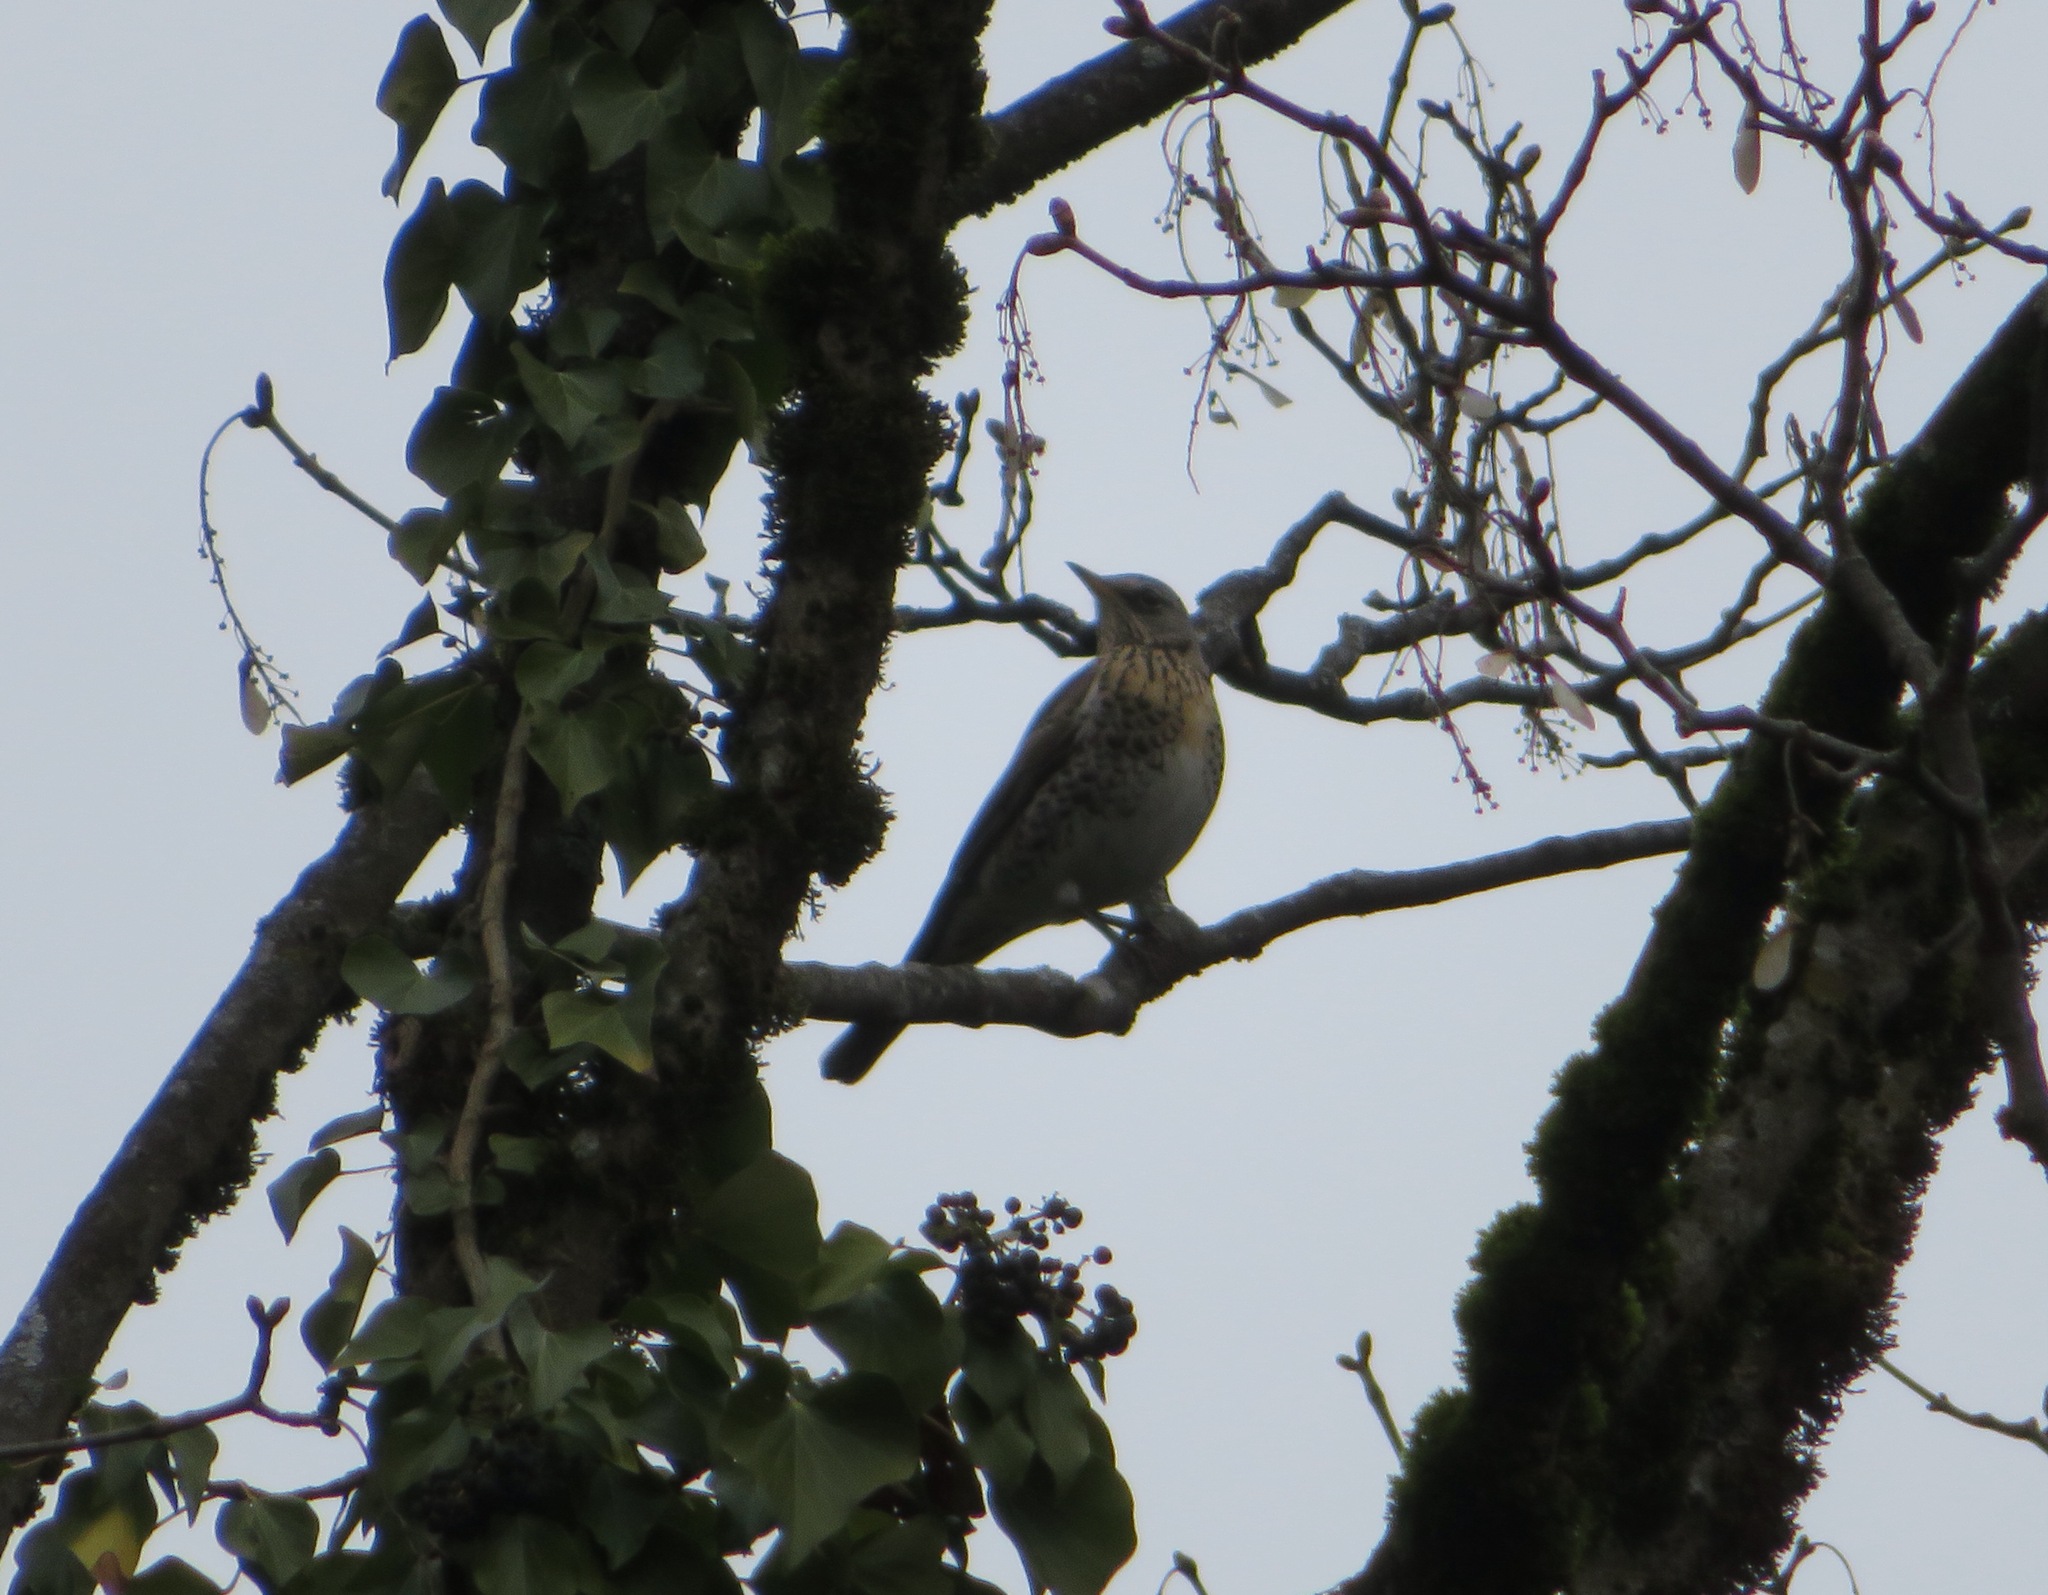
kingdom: Animalia
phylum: Chordata
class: Aves
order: Passeriformes
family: Turdidae
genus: Turdus
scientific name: Turdus pilaris
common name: Fieldfare
